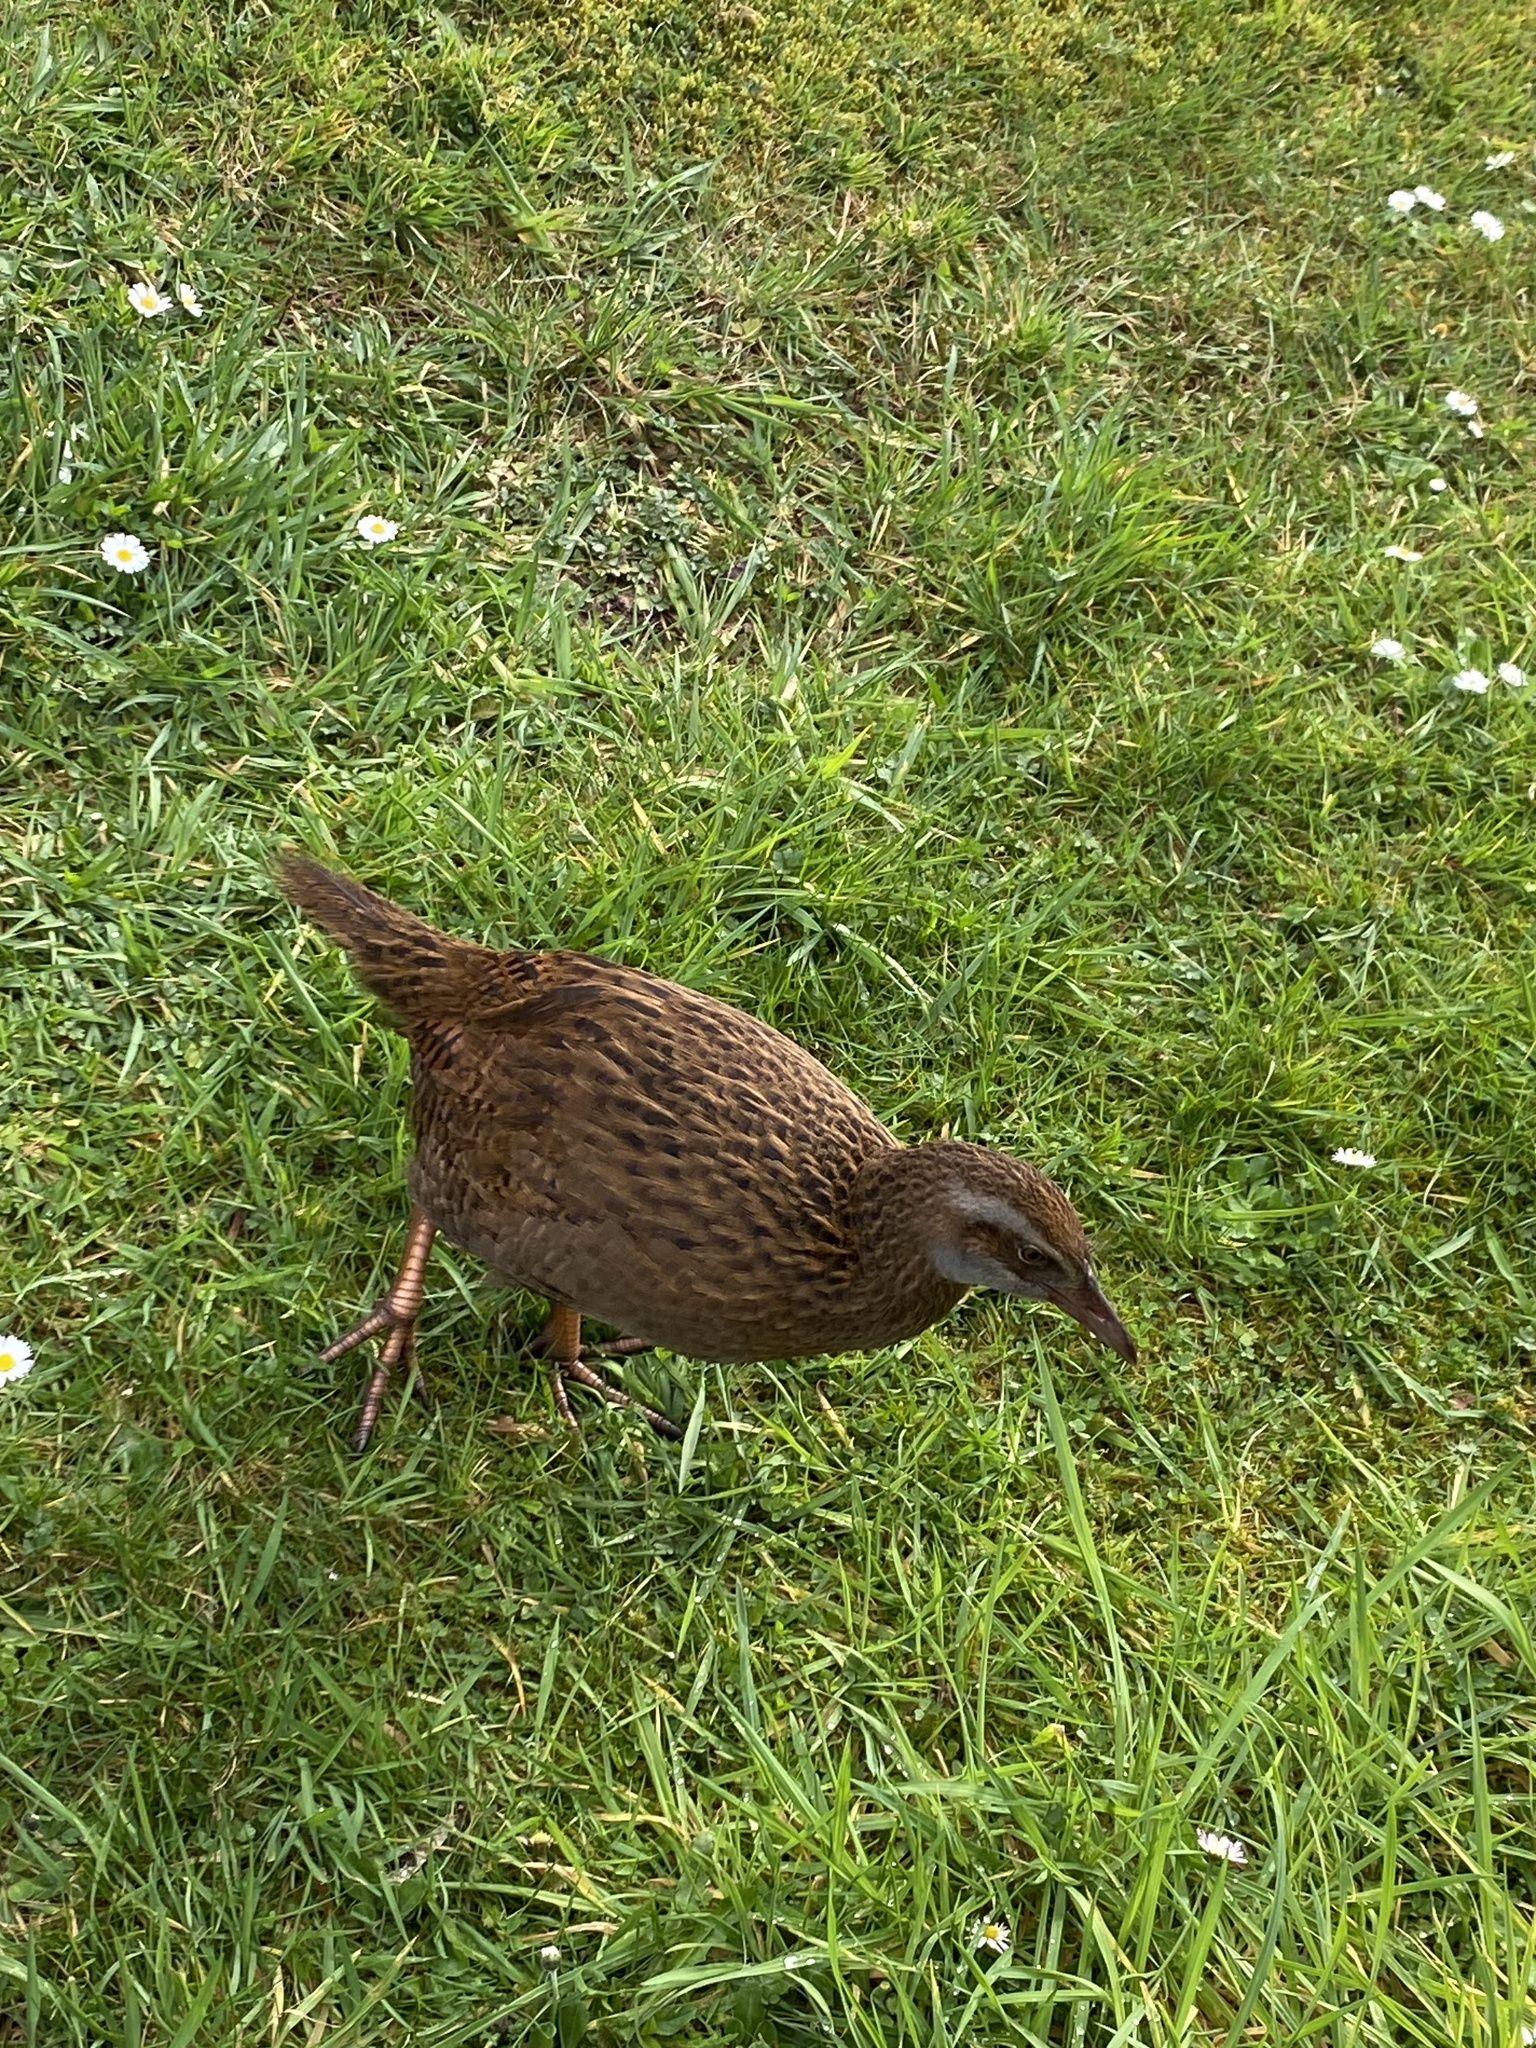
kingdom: Animalia
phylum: Chordata
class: Aves
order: Gruiformes
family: Rallidae
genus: Gallirallus
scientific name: Gallirallus australis
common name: Weka
